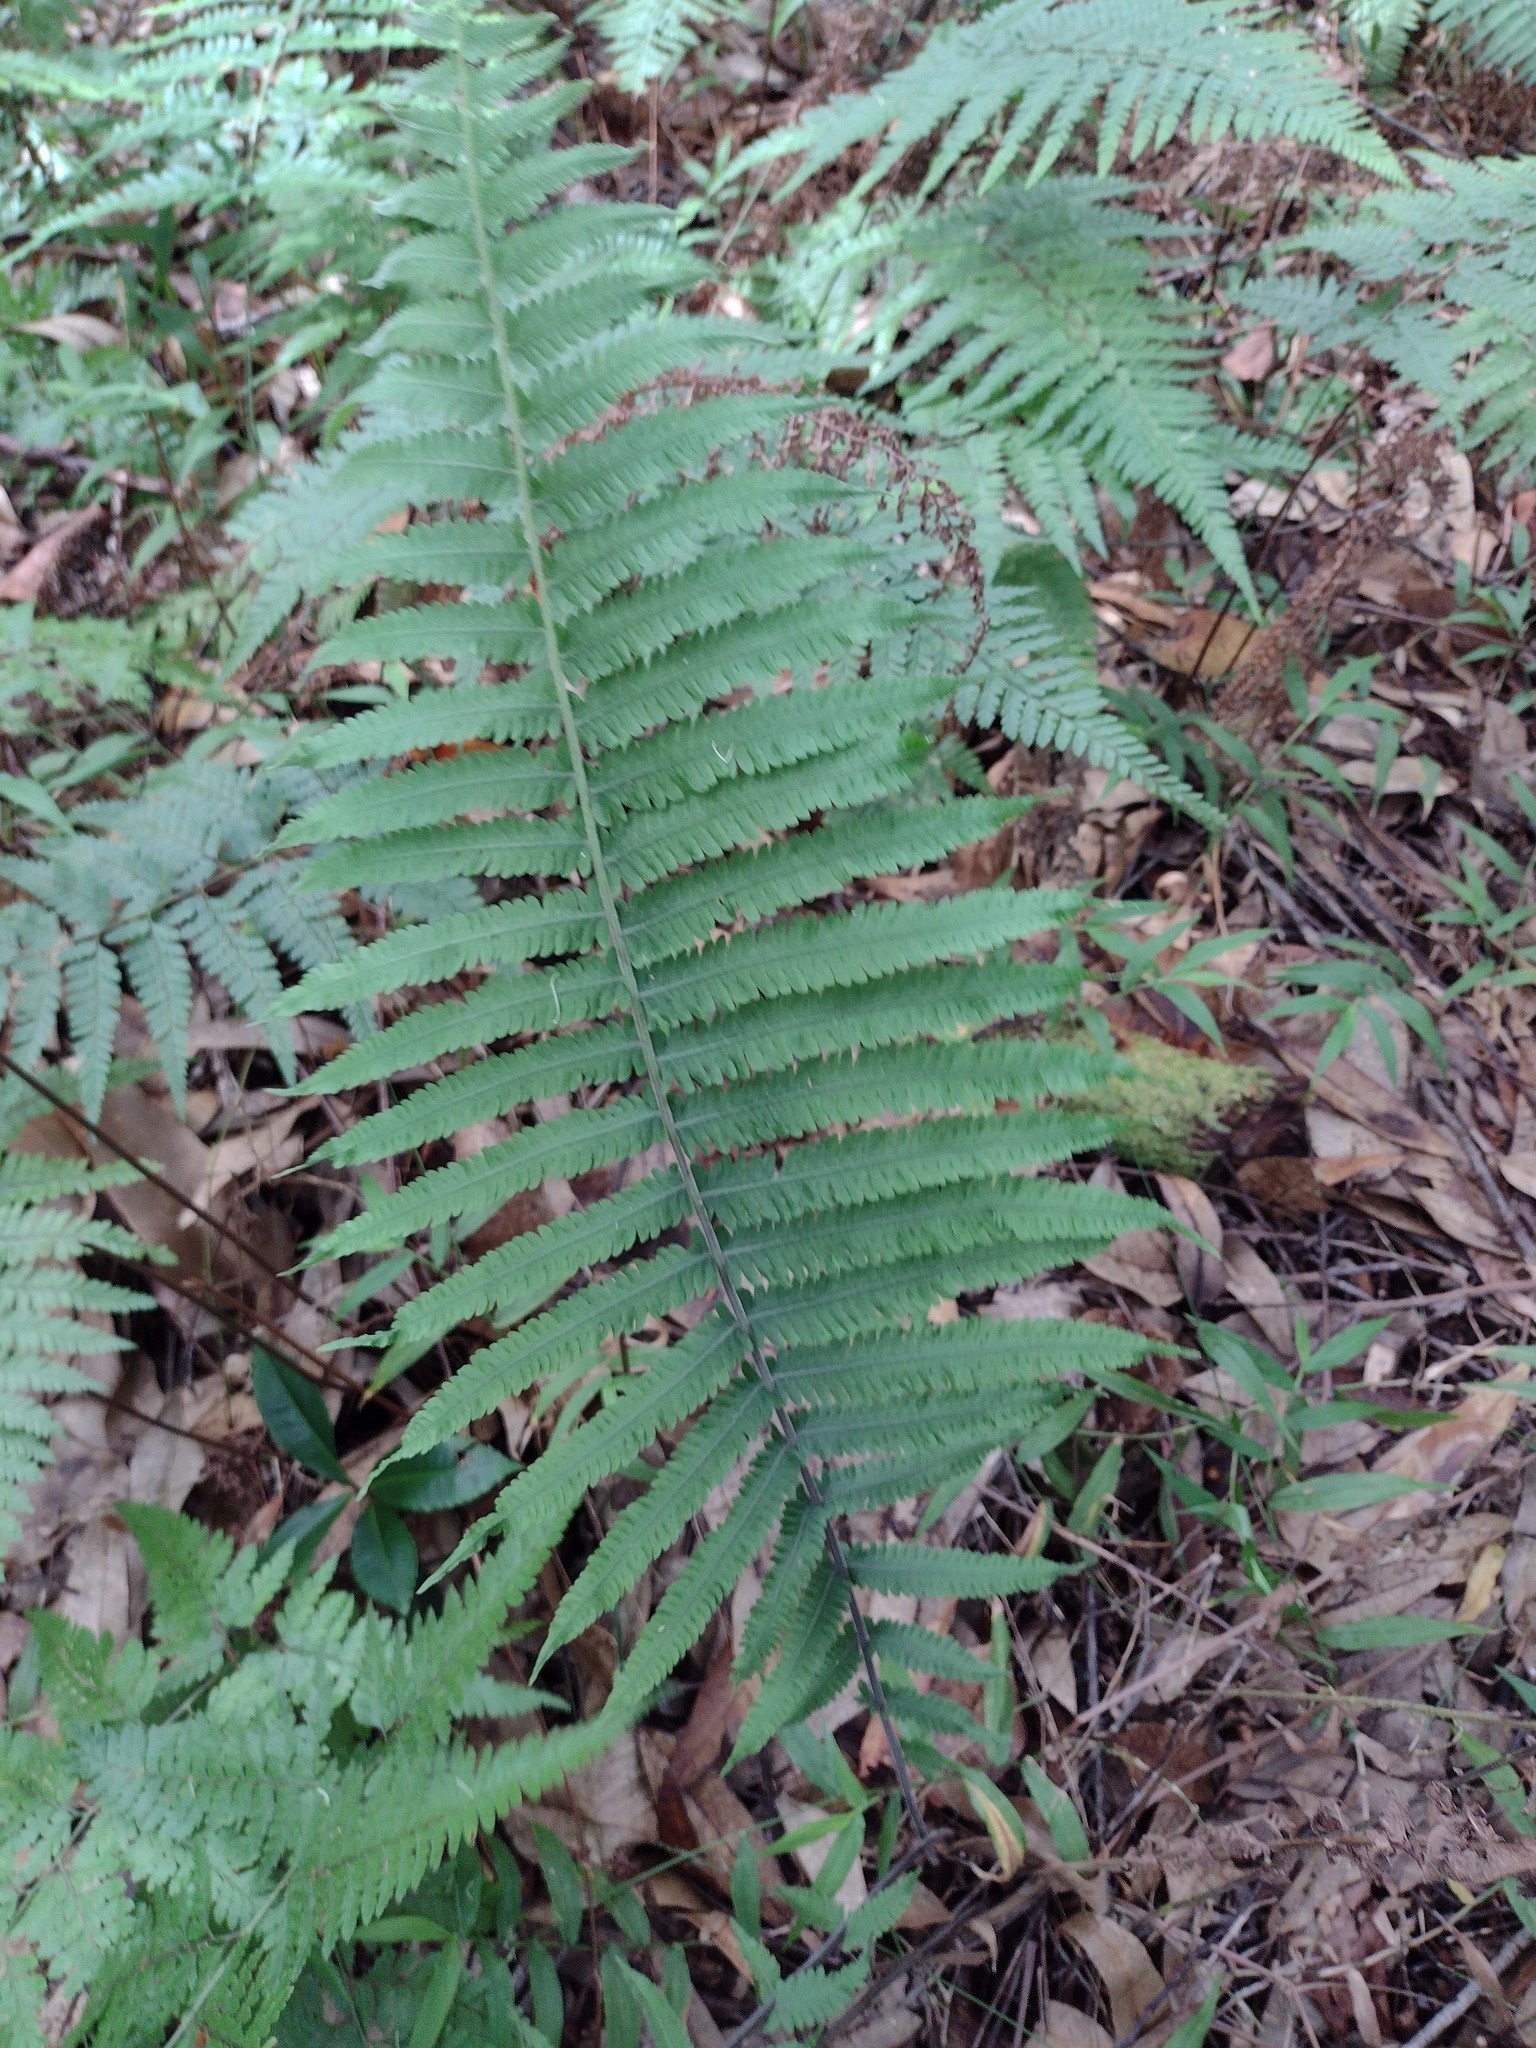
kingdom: Plantae
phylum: Tracheophyta
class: Polypodiopsida
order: Polypodiales
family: Thelypteridaceae
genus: Christella
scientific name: Christella dentata
